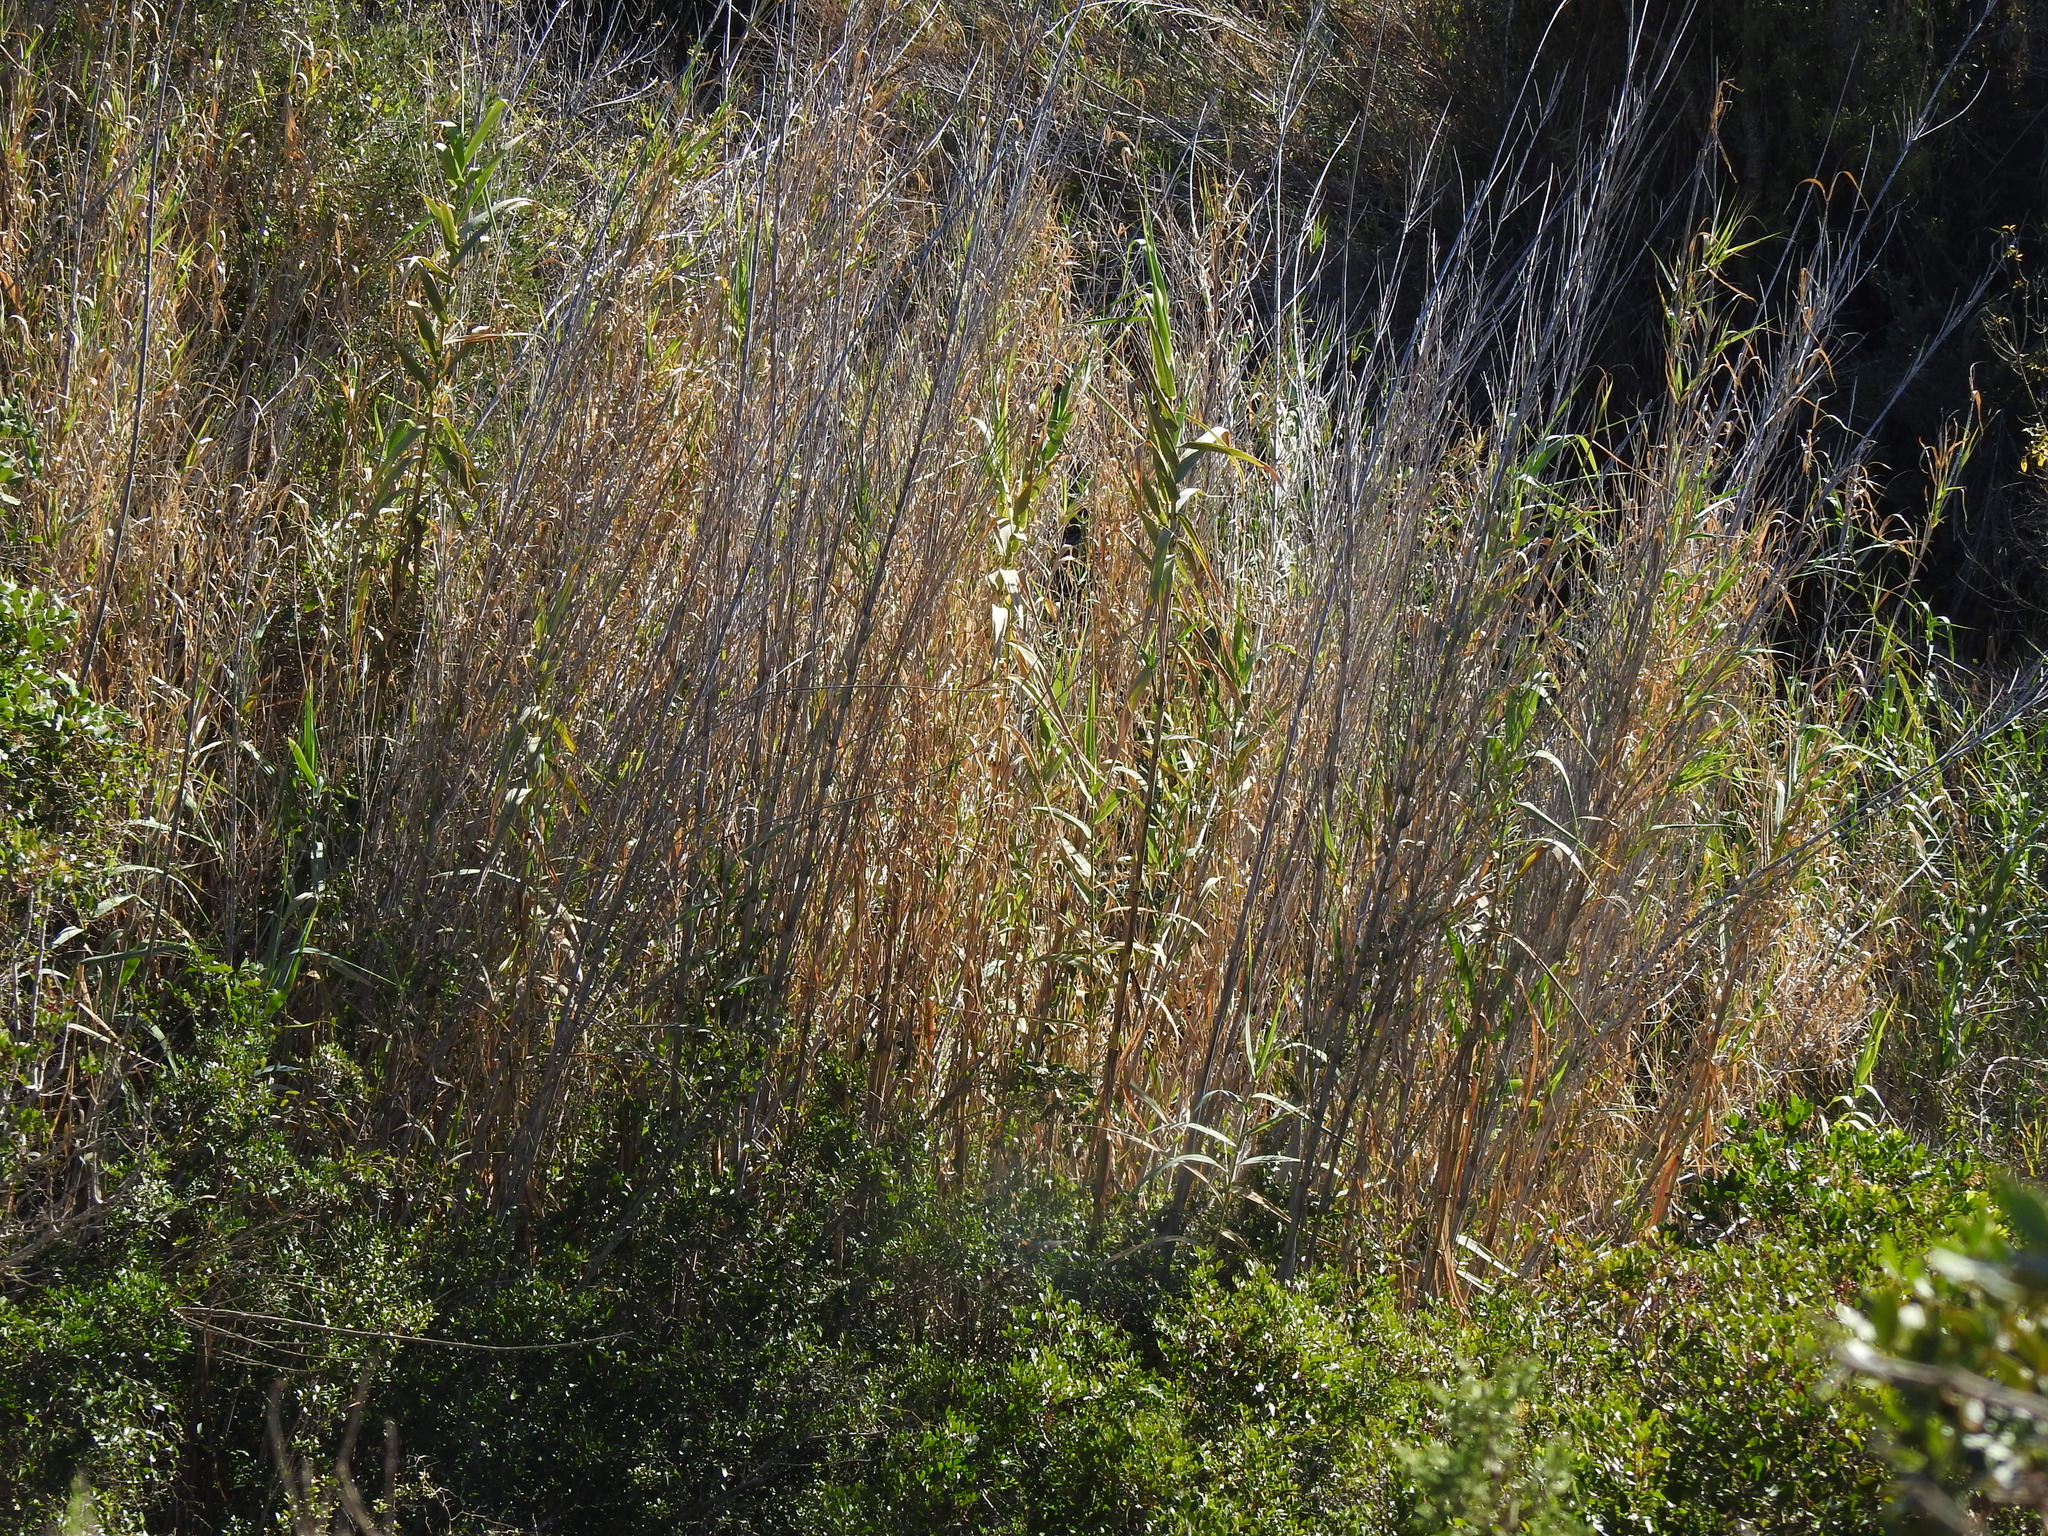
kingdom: Plantae
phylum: Tracheophyta
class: Liliopsida
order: Poales
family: Poaceae
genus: Arundo
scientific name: Arundo donax
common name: Giant reed
